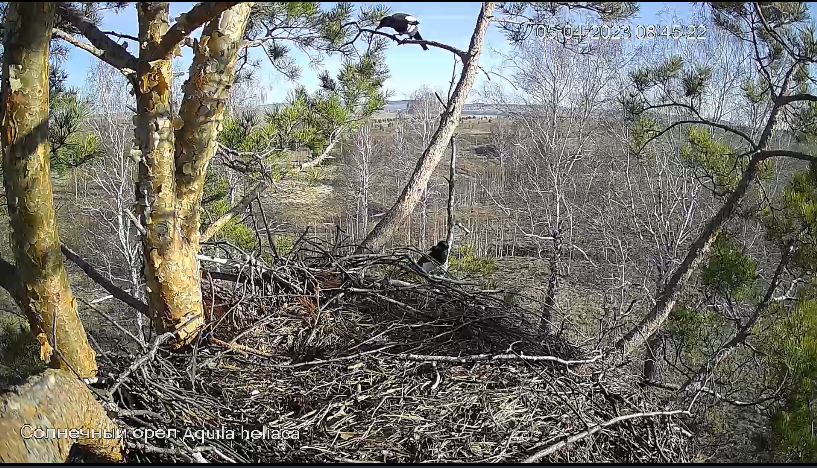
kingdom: Animalia
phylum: Chordata
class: Aves
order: Passeriformes
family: Corvidae
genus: Pica
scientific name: Pica pica
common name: Eurasian magpie
